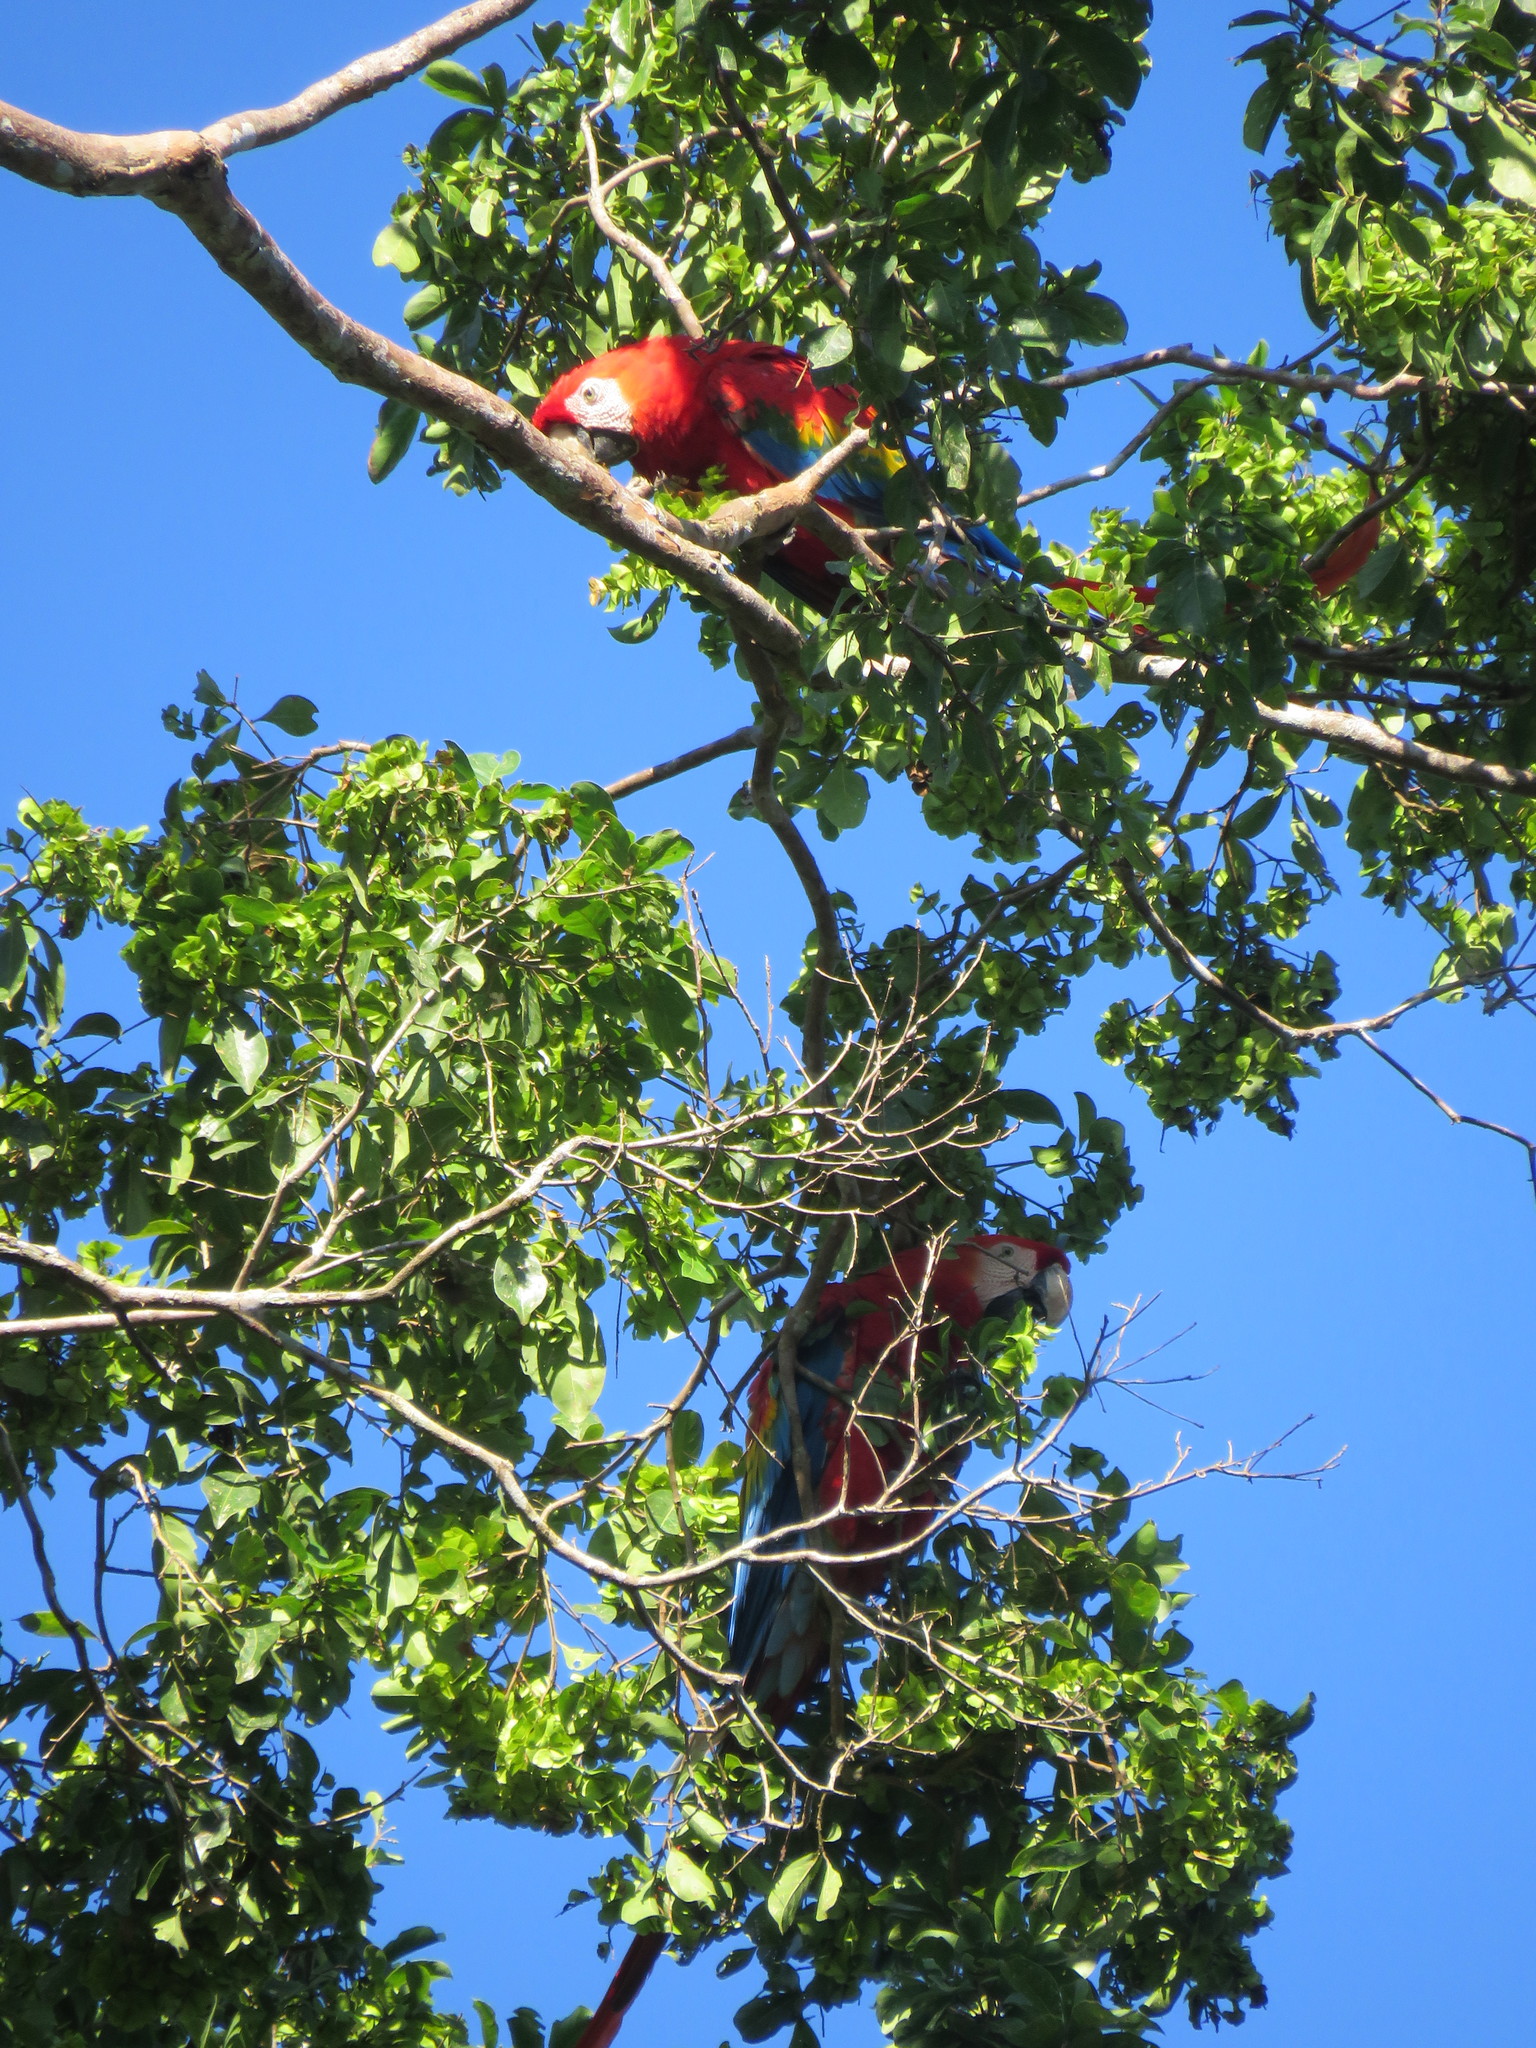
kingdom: Animalia
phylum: Chordata
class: Aves
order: Psittaciformes
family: Psittacidae
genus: Ara
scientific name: Ara macao
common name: Scarlet macaw
